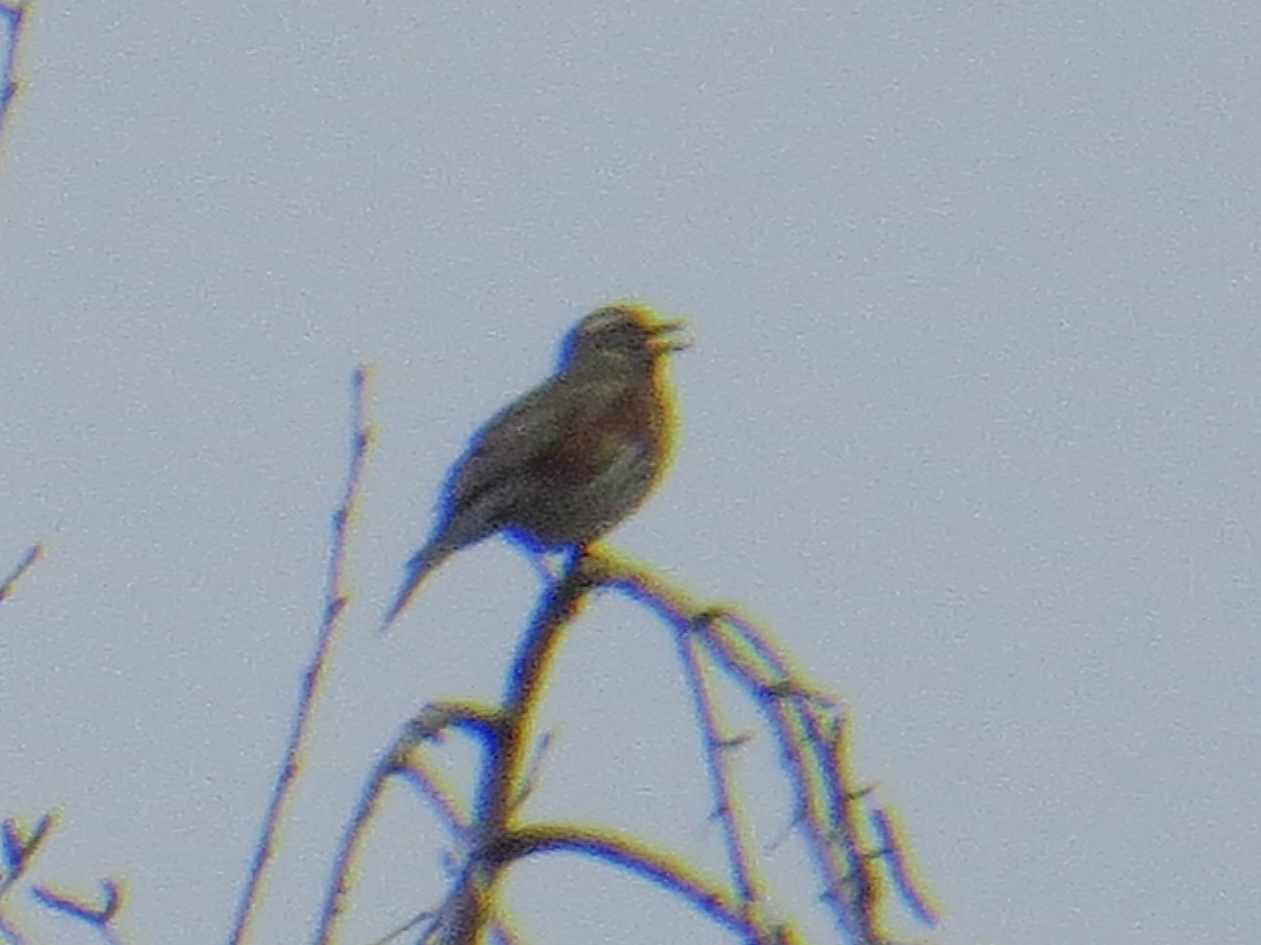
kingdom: Animalia
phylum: Chordata
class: Aves
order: Passeriformes
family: Turdidae
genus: Turdus
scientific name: Turdus iliacus
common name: Redwing
